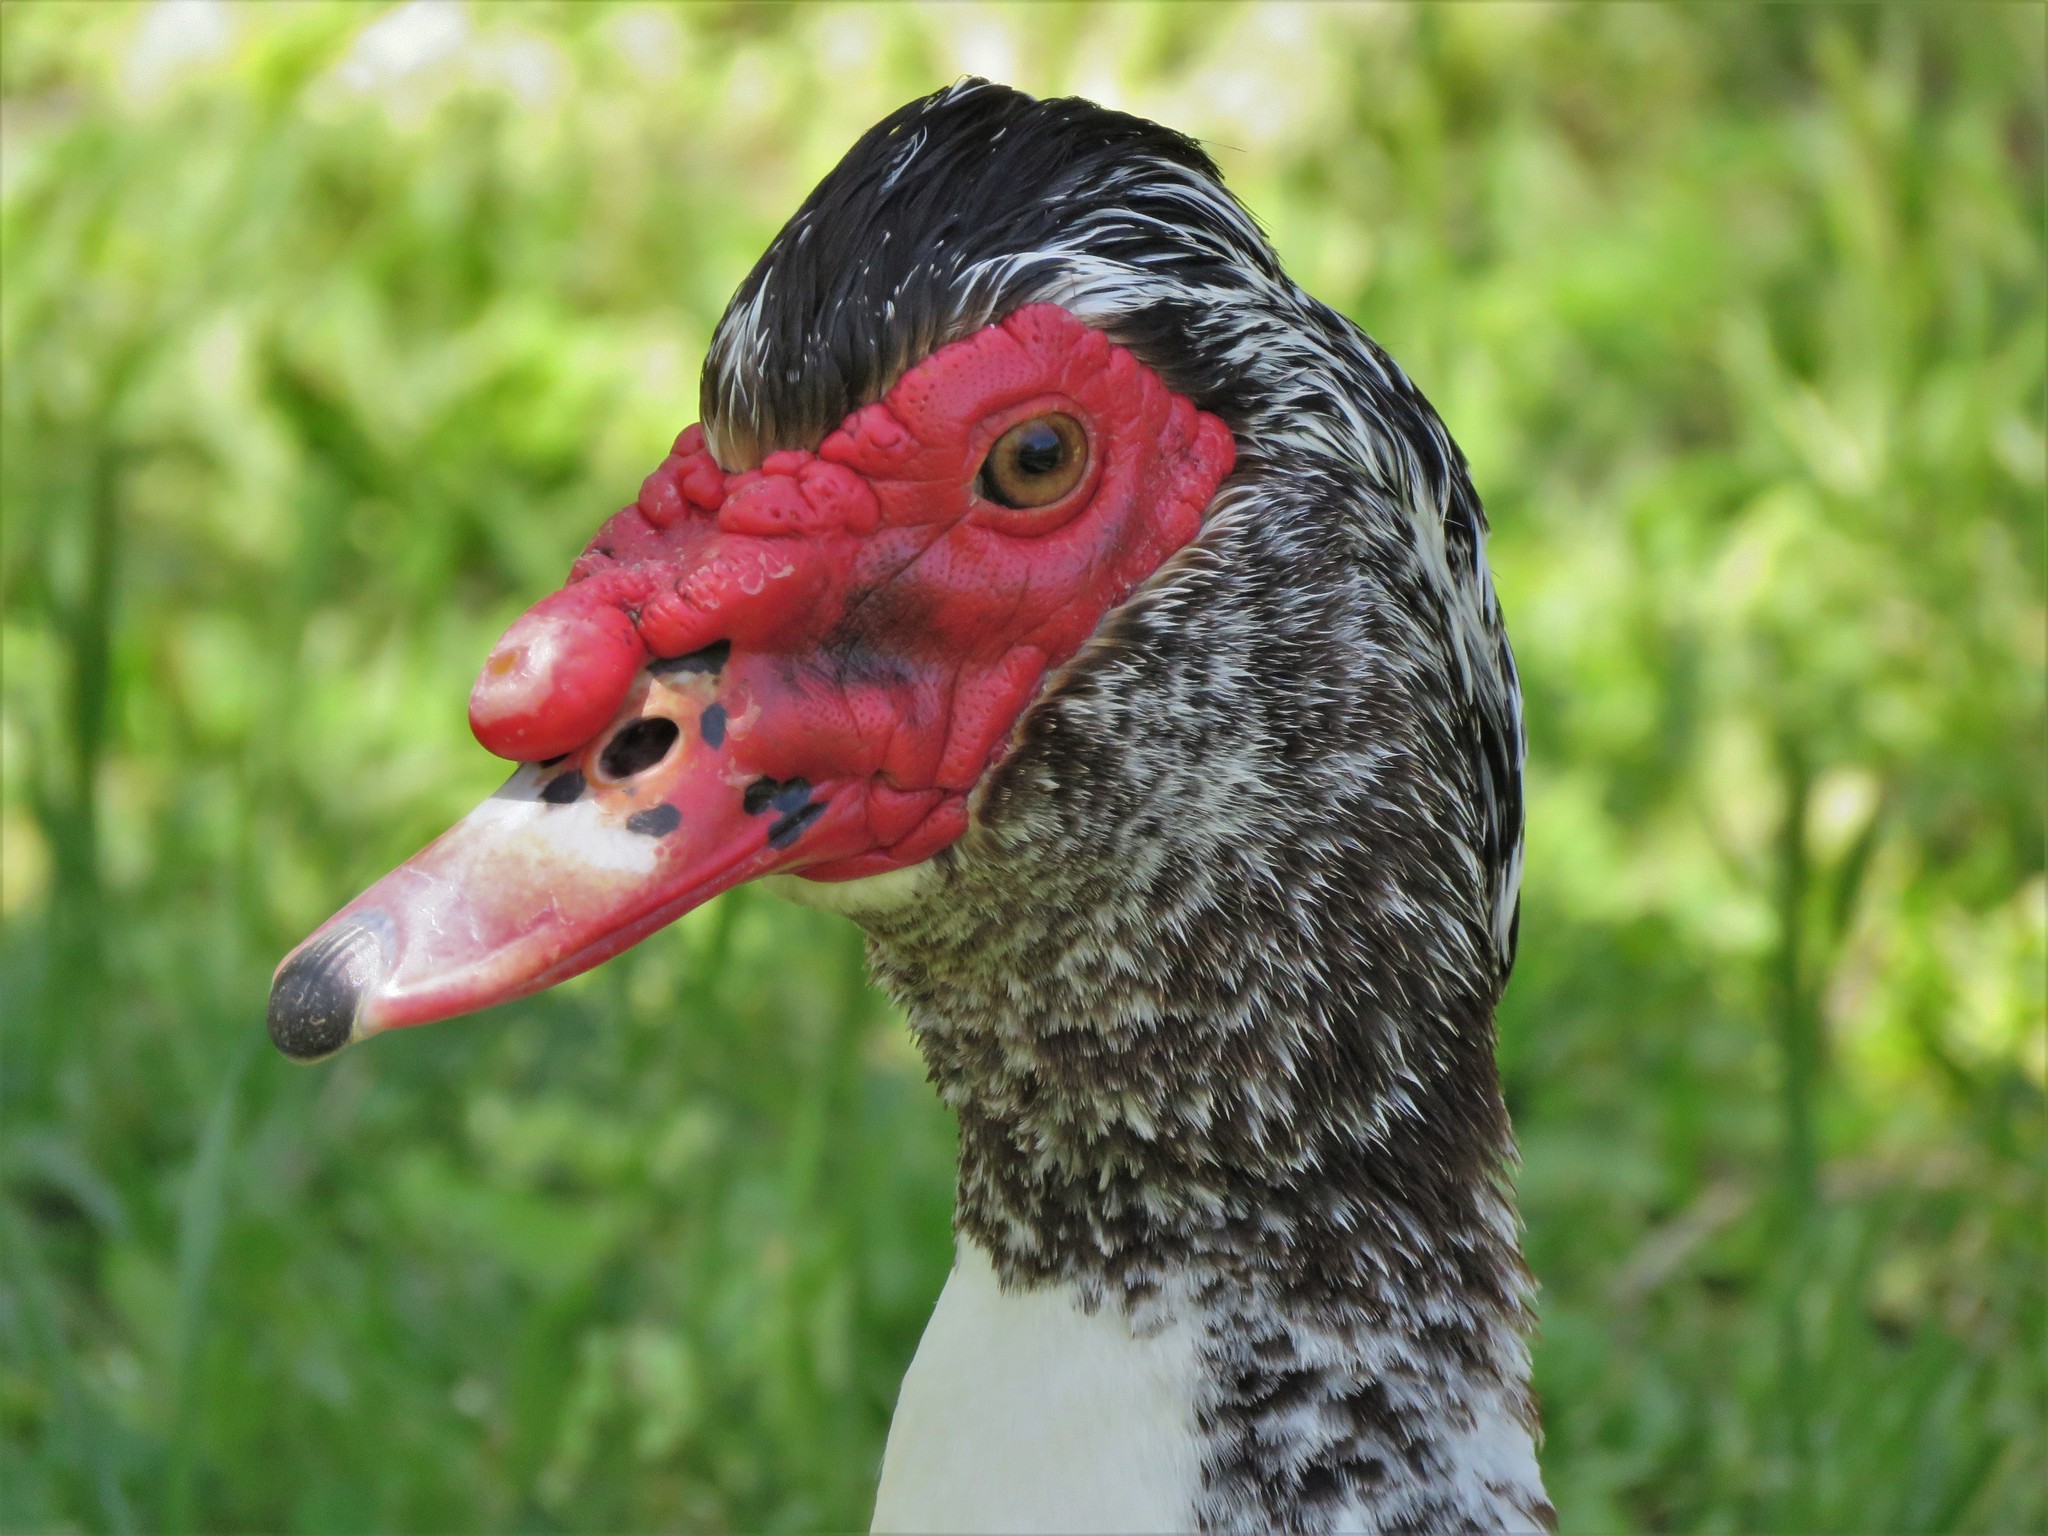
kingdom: Animalia
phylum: Chordata
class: Aves
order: Anseriformes
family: Anatidae
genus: Cairina
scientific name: Cairina moschata
